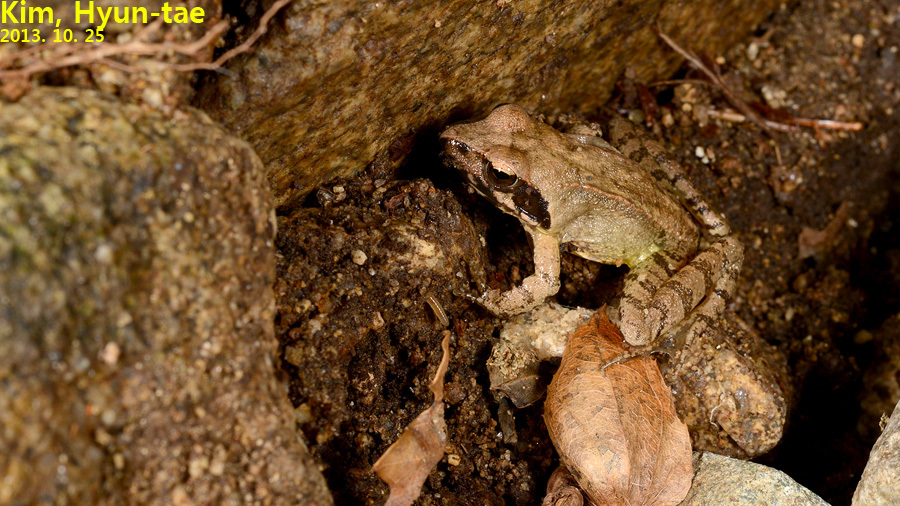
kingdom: Animalia
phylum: Chordata
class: Amphibia
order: Anura
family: Ranidae
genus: Rana
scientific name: Rana uenoi
